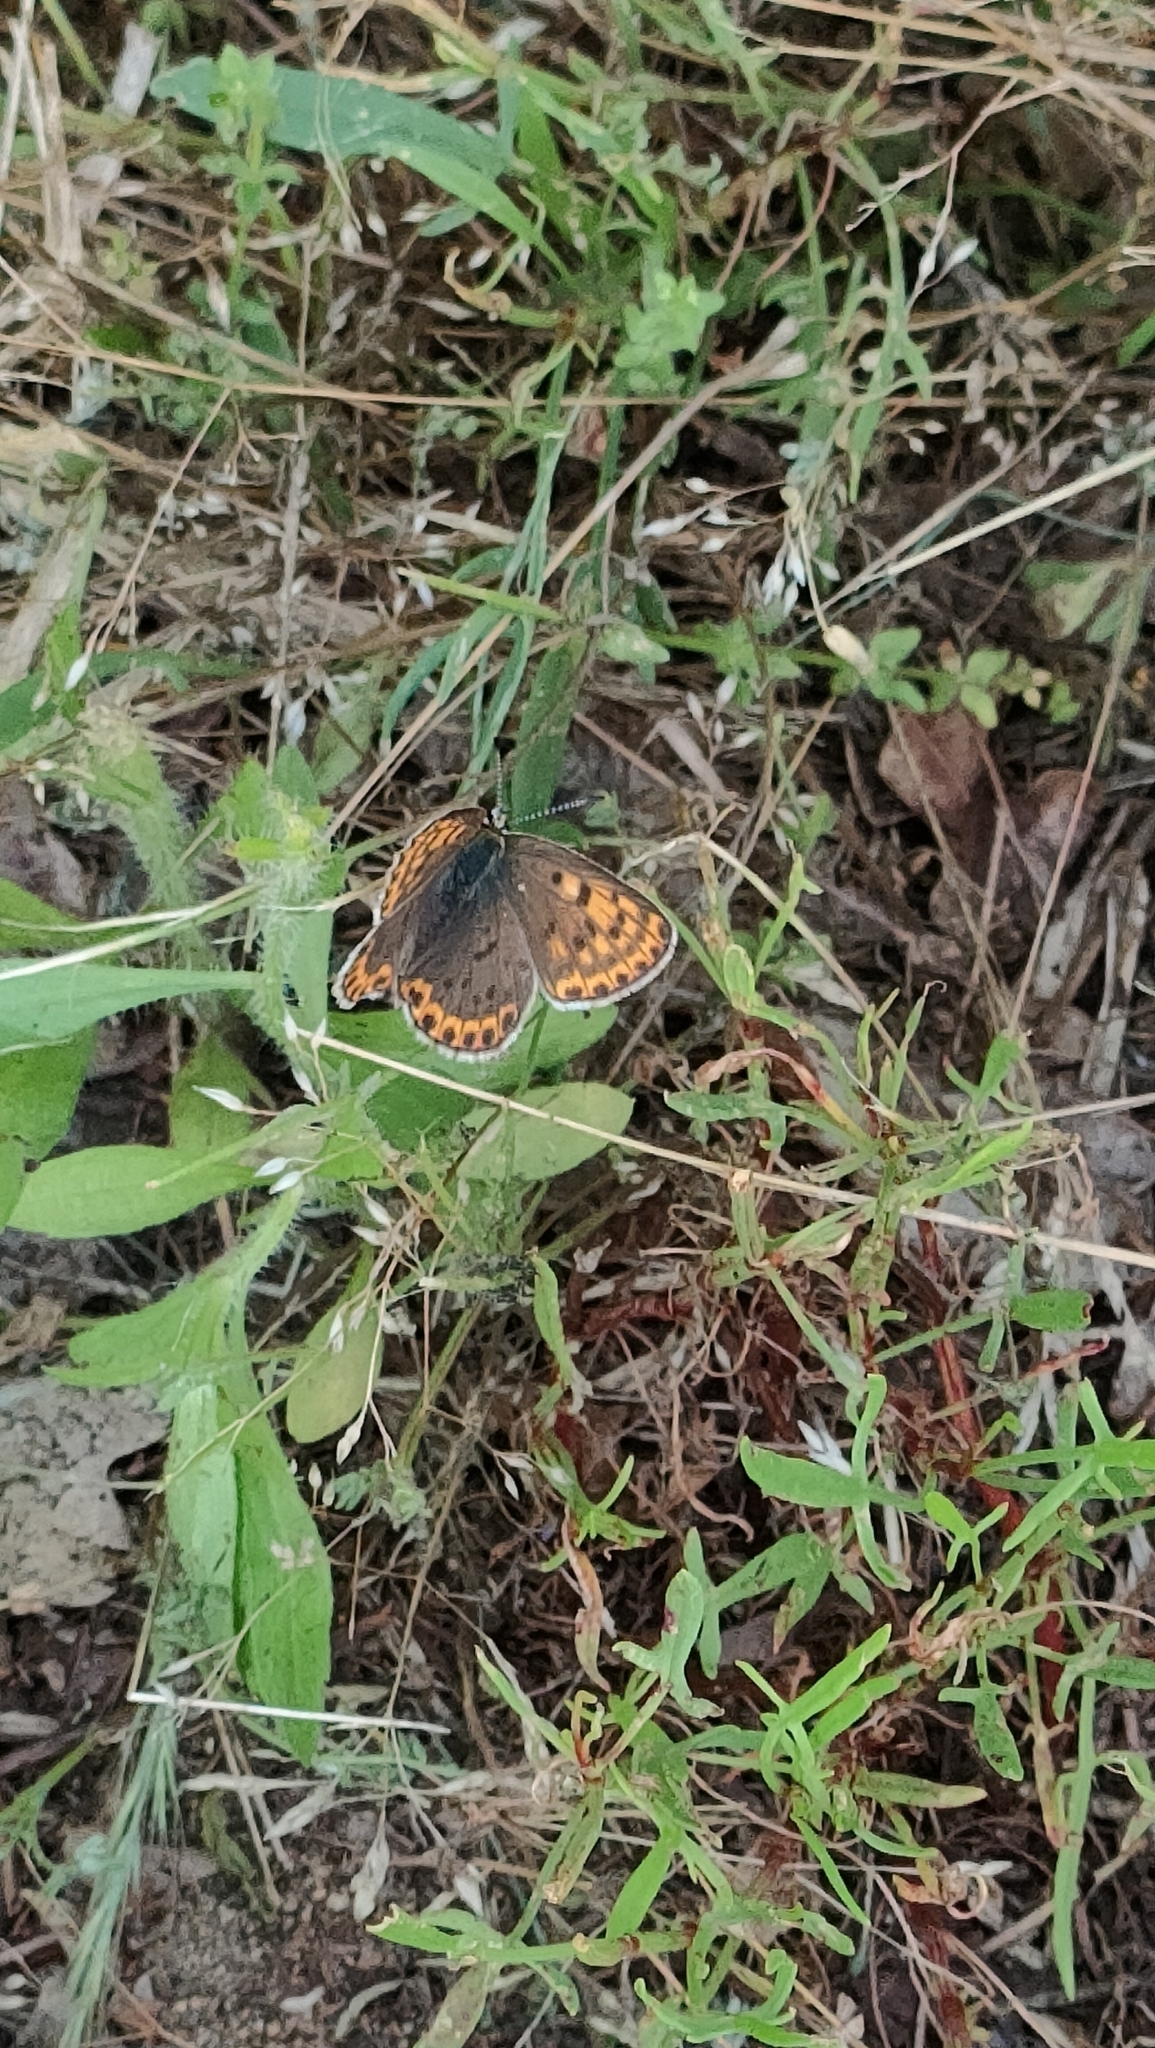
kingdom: Animalia
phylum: Arthropoda
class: Insecta
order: Lepidoptera
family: Lycaenidae
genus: Loweia
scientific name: Loweia tityrus
